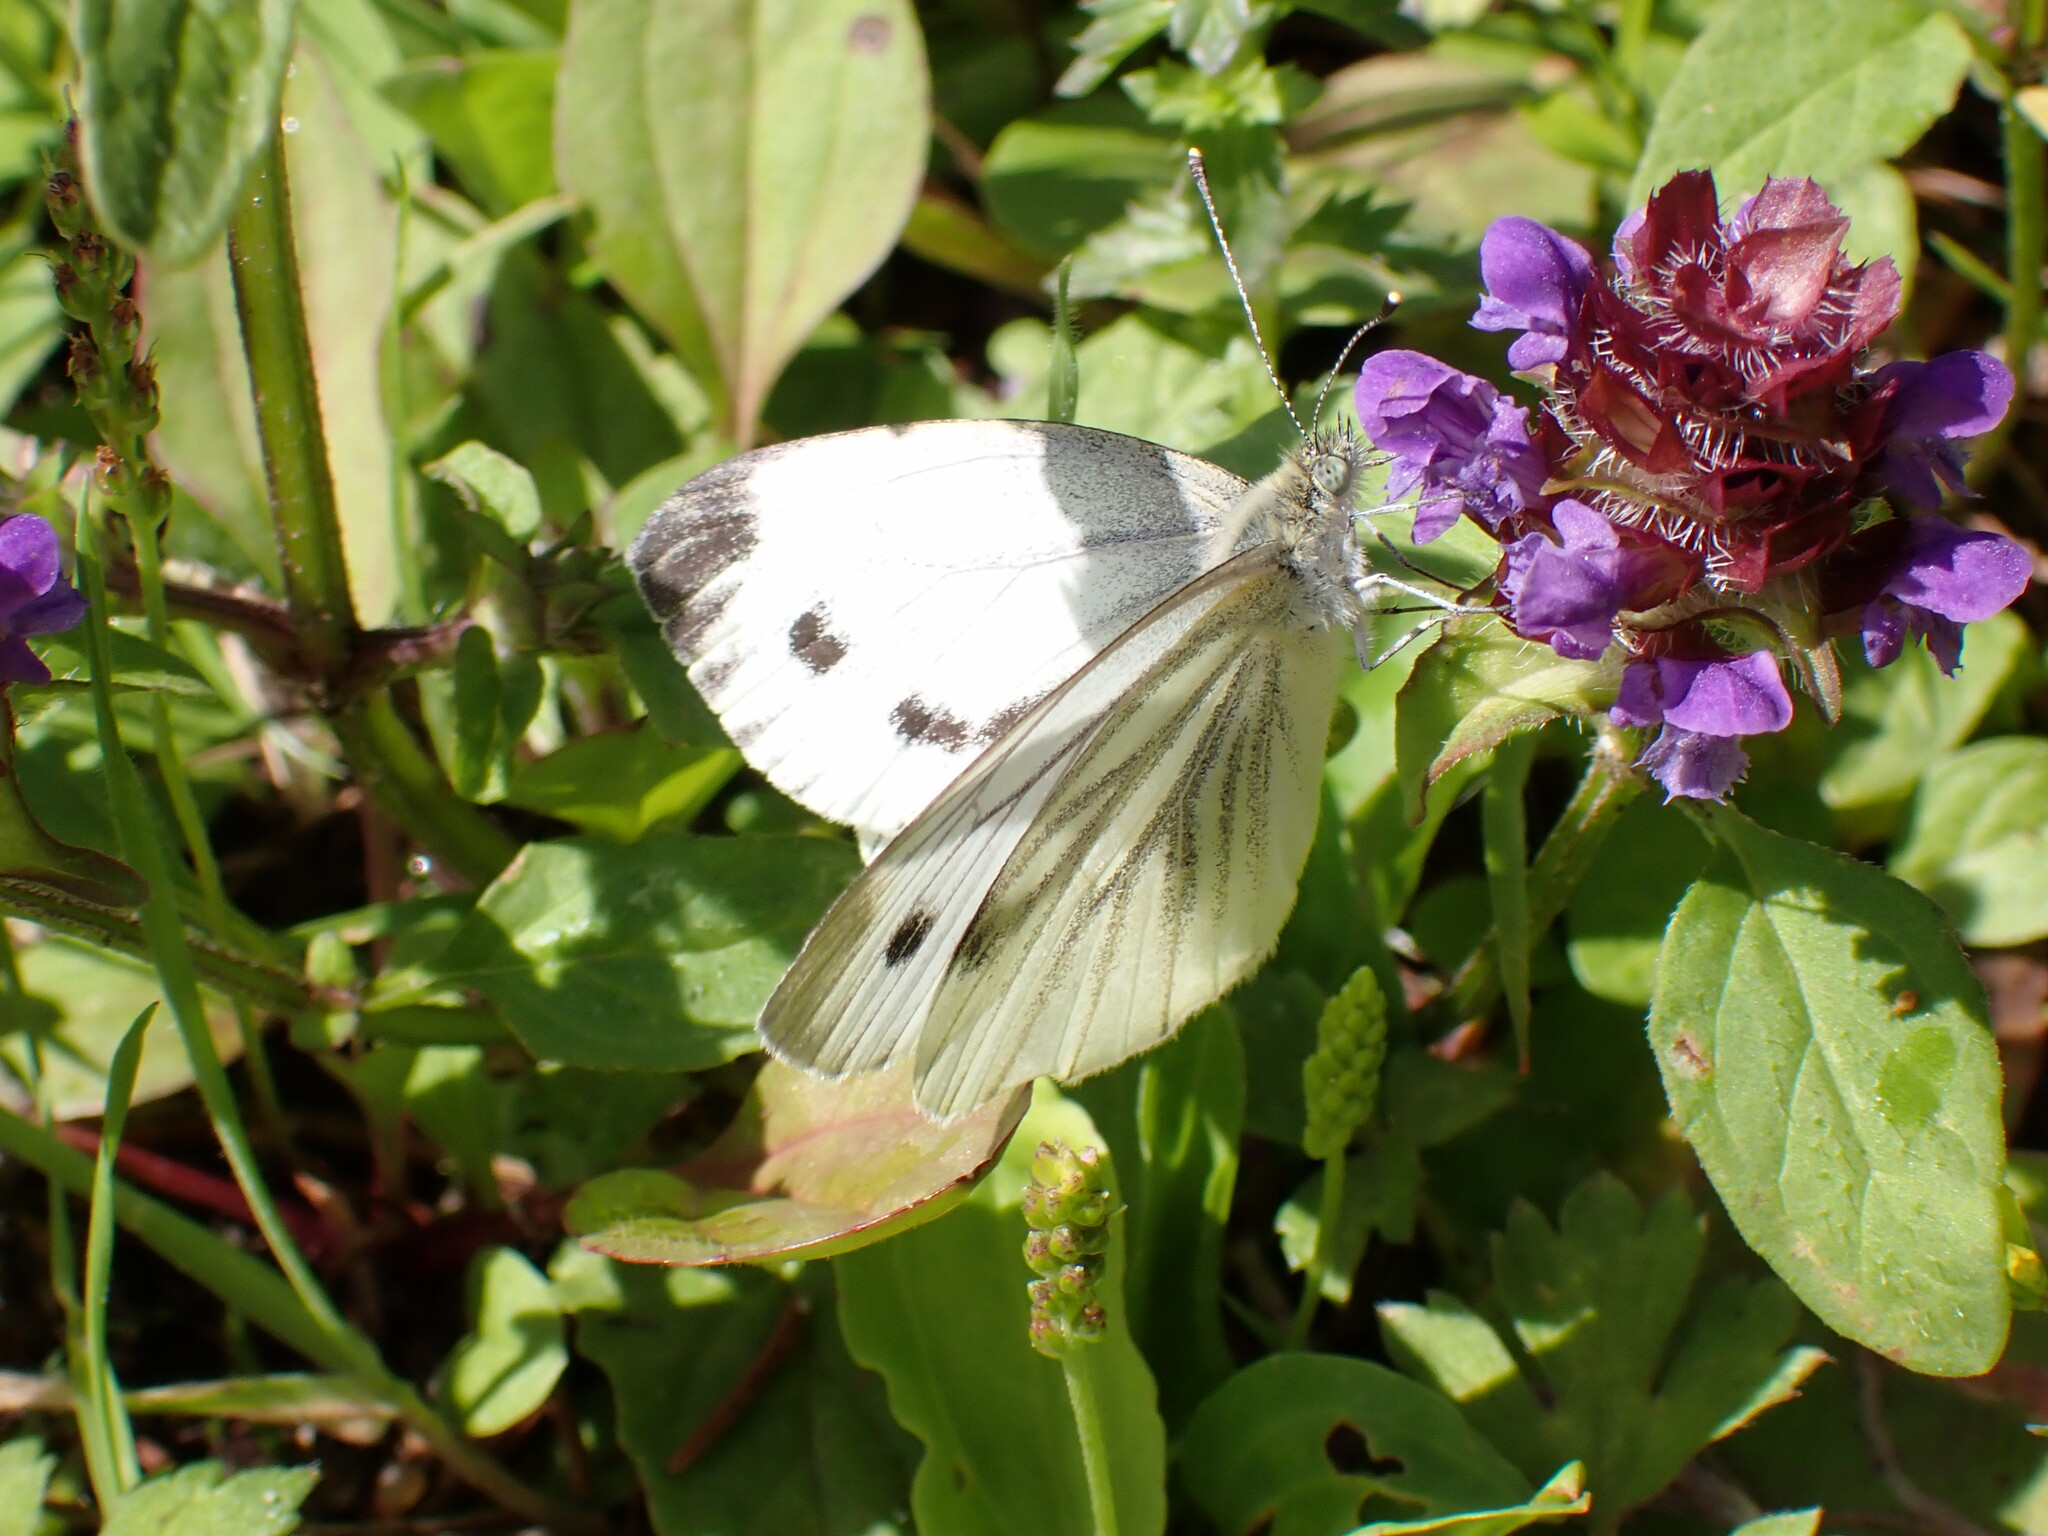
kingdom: Animalia
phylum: Arthropoda
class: Insecta
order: Lepidoptera
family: Pieridae
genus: Pieris
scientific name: Pieris napi
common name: Green-veined white
